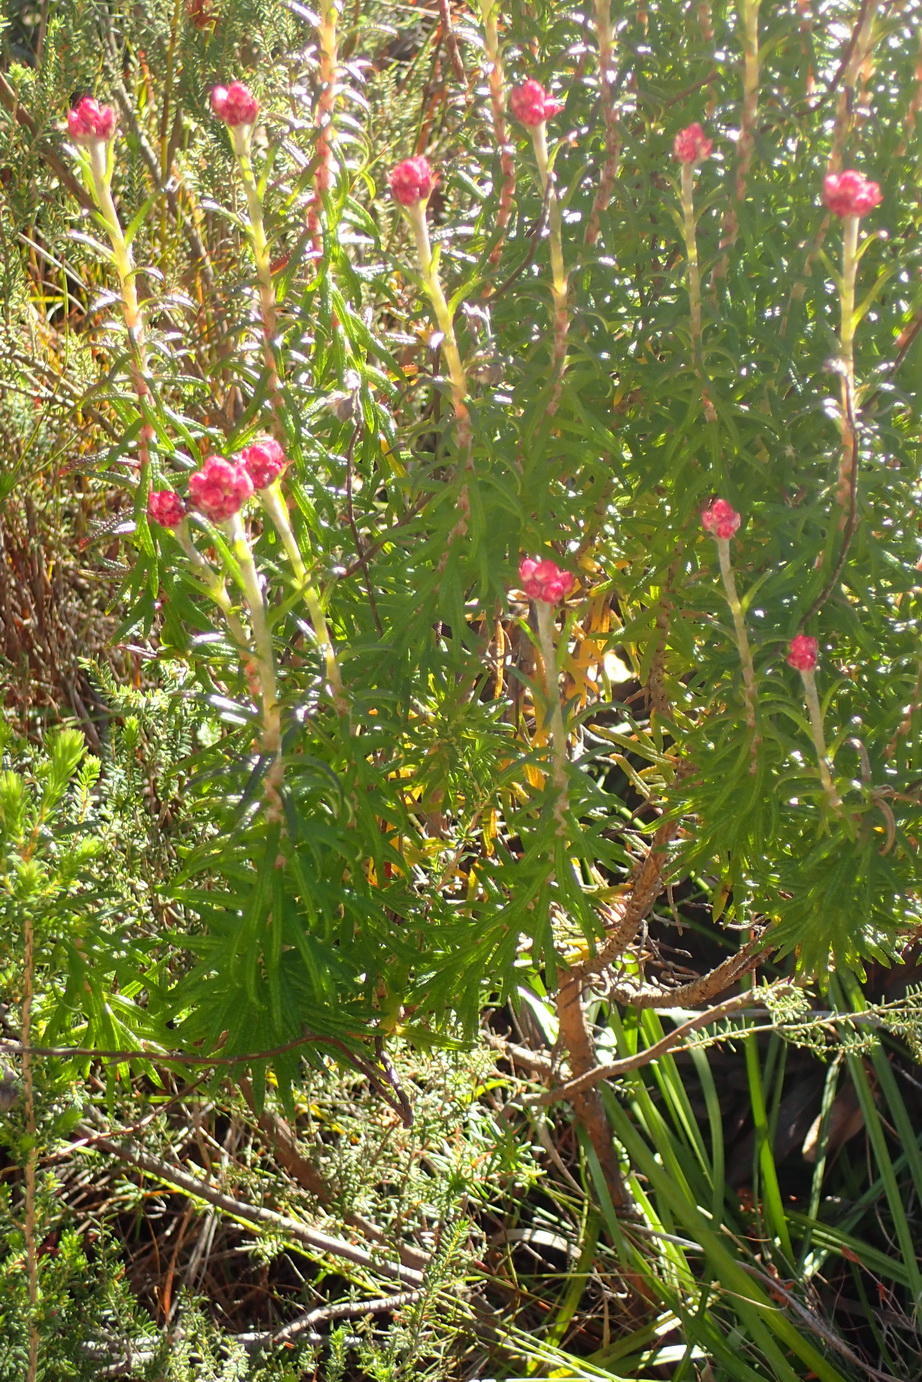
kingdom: Plantae
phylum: Tracheophyta
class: Magnoliopsida
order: Asterales
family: Asteraceae
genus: Helichrysum
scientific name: Helichrysum felinum
